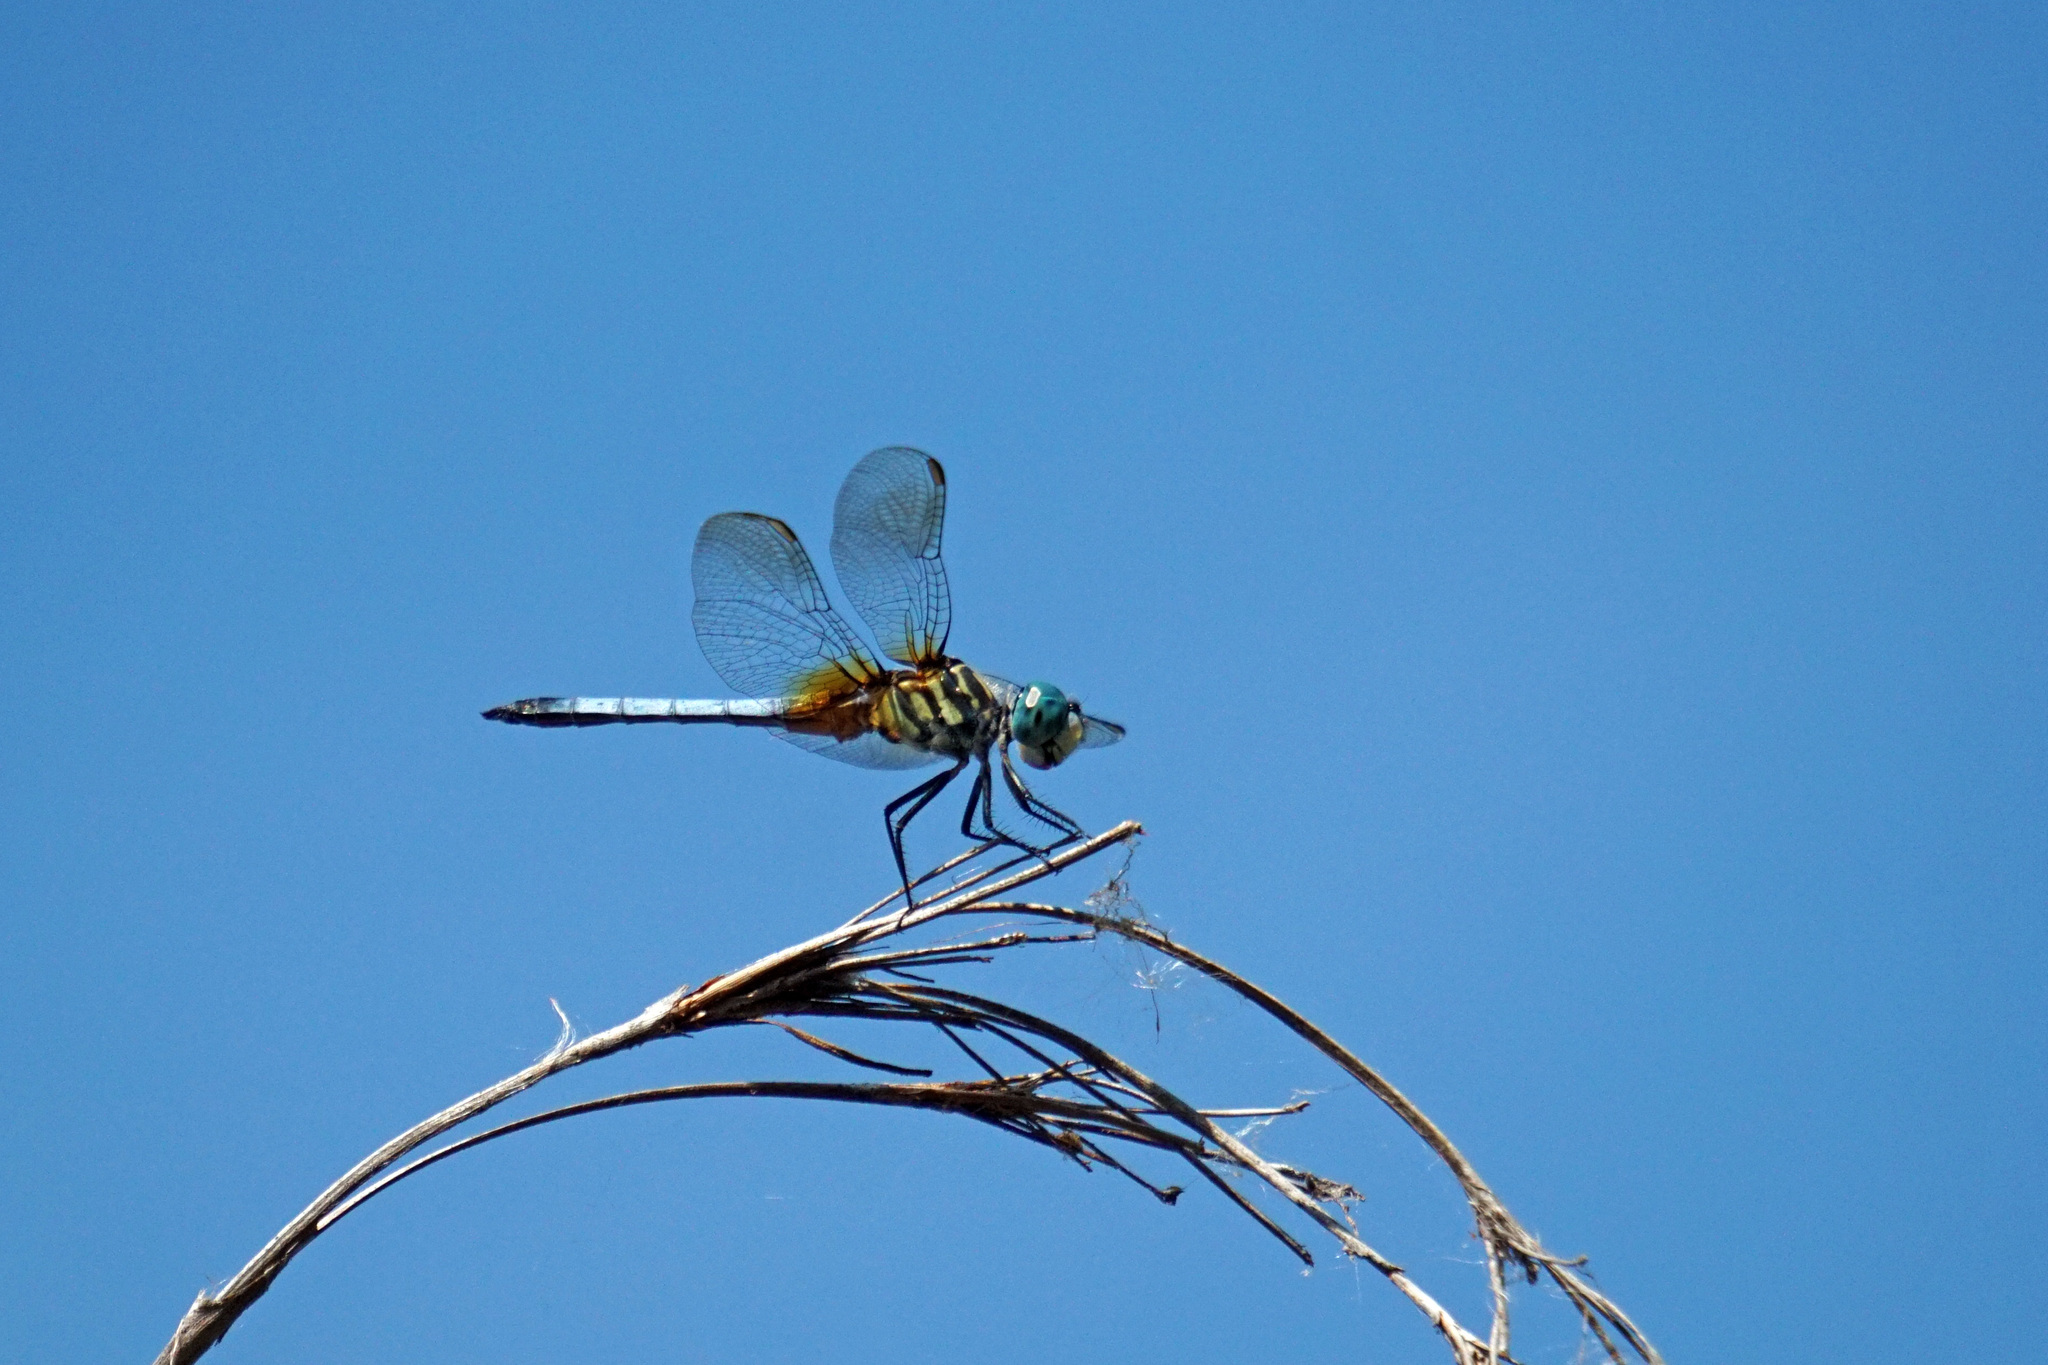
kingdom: Animalia
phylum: Arthropoda
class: Insecta
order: Odonata
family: Libellulidae
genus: Pachydiplax
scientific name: Pachydiplax longipennis
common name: Blue dasher
